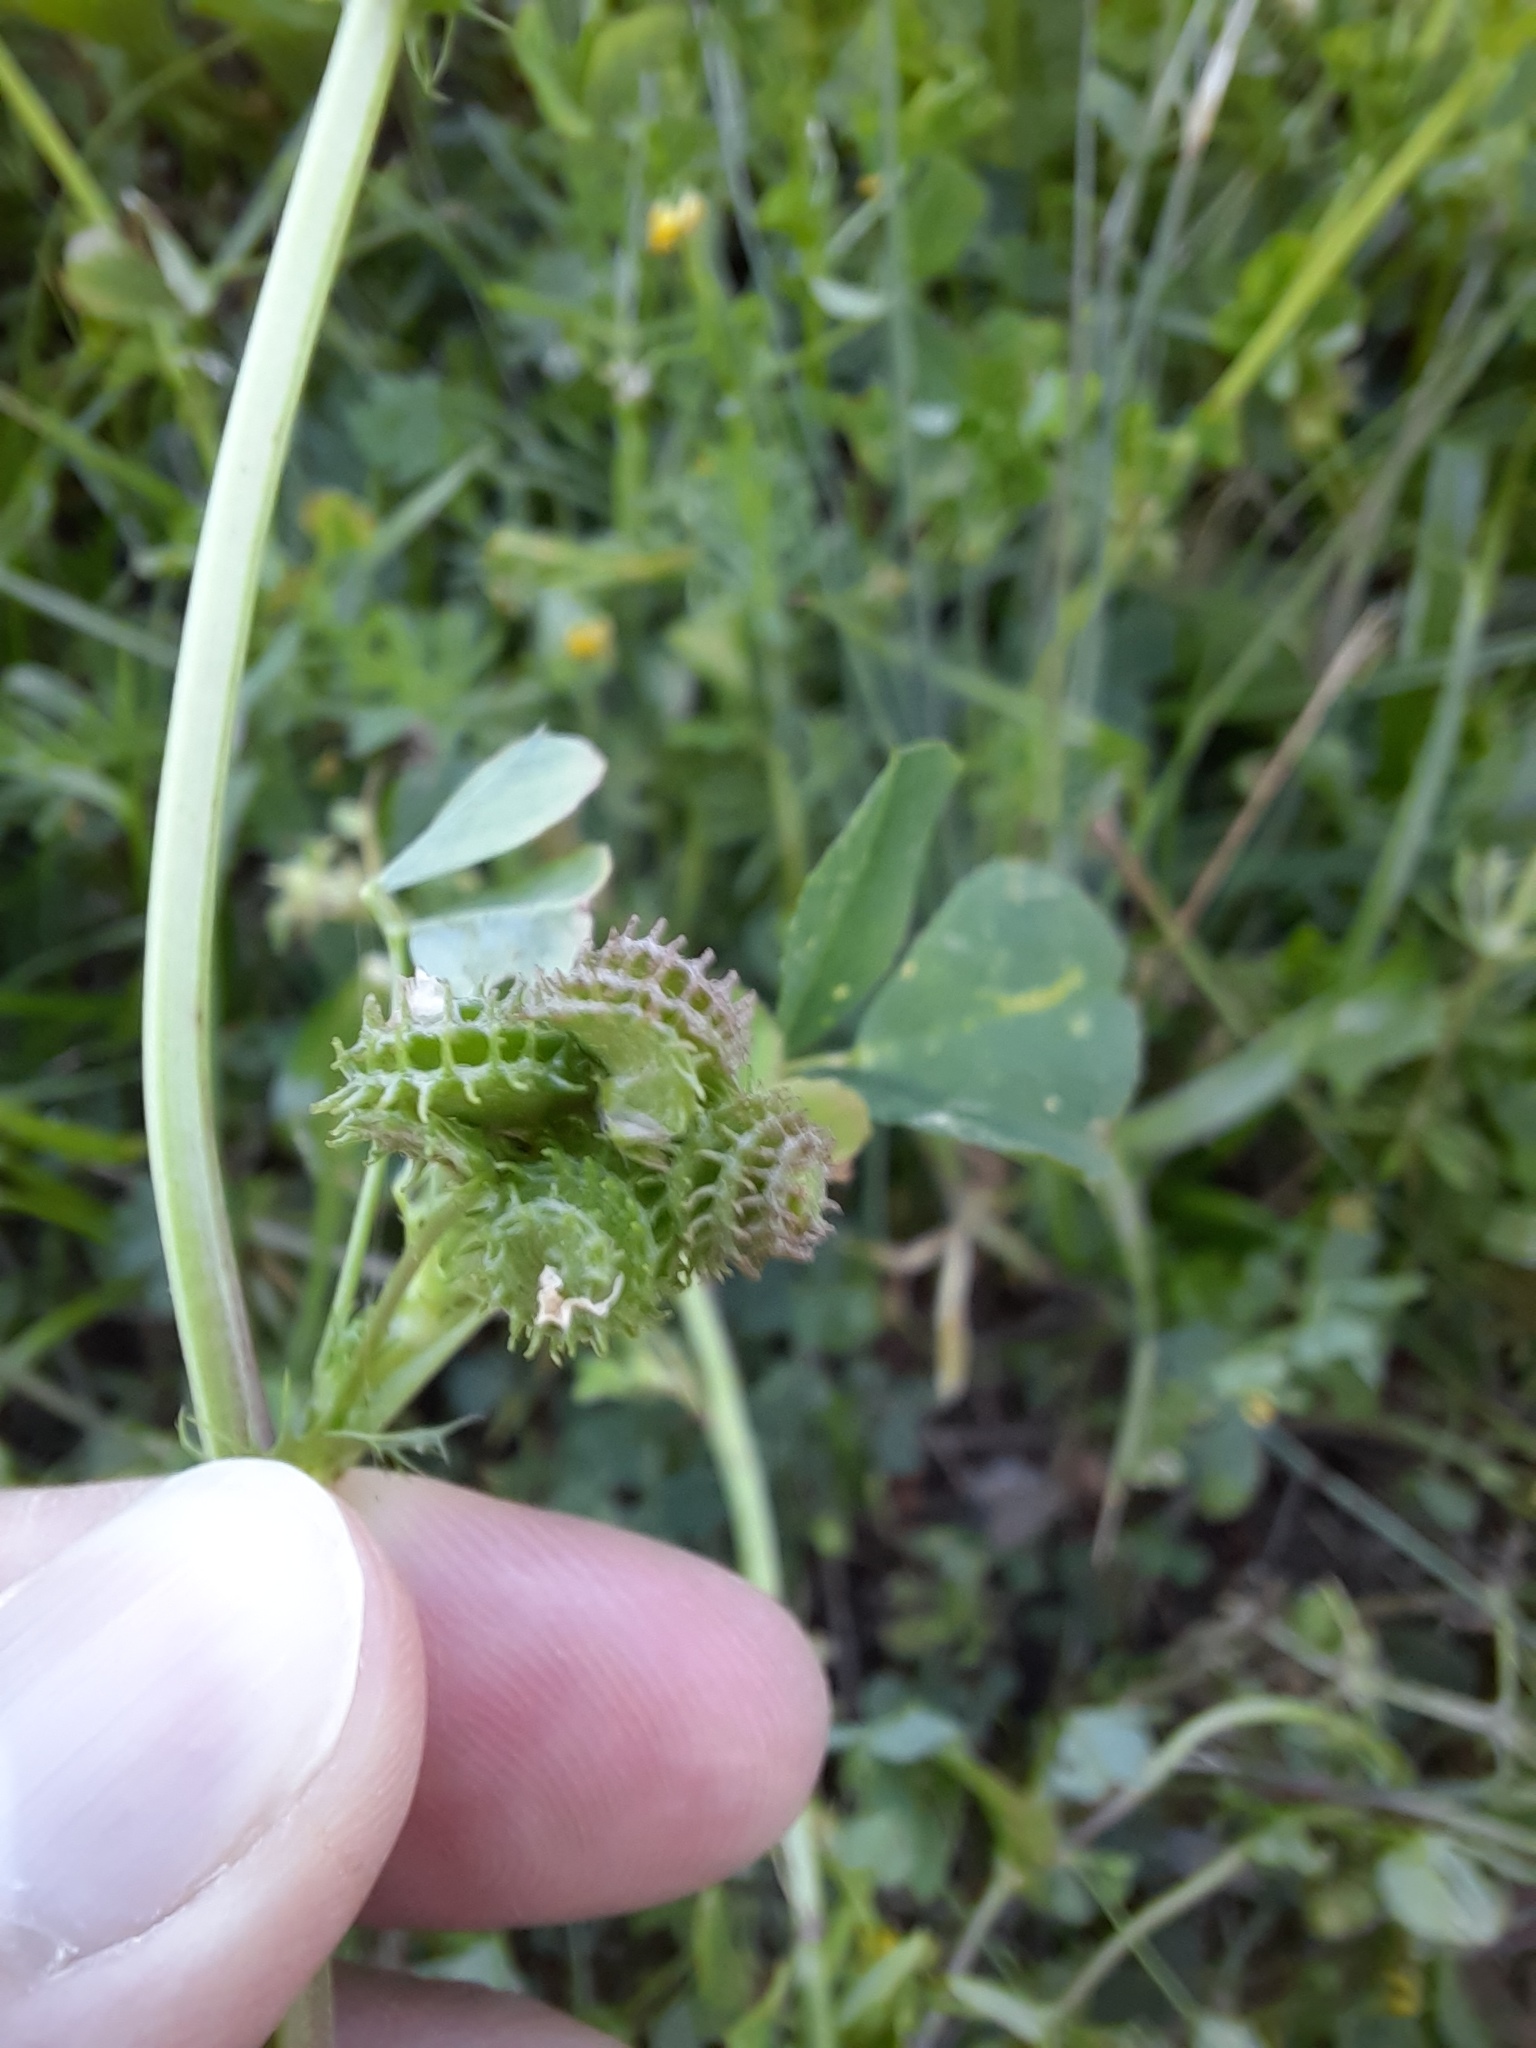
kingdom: Plantae
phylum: Tracheophyta
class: Magnoliopsida
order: Fabales
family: Fabaceae
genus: Medicago
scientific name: Medicago polymorpha
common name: Burclover
